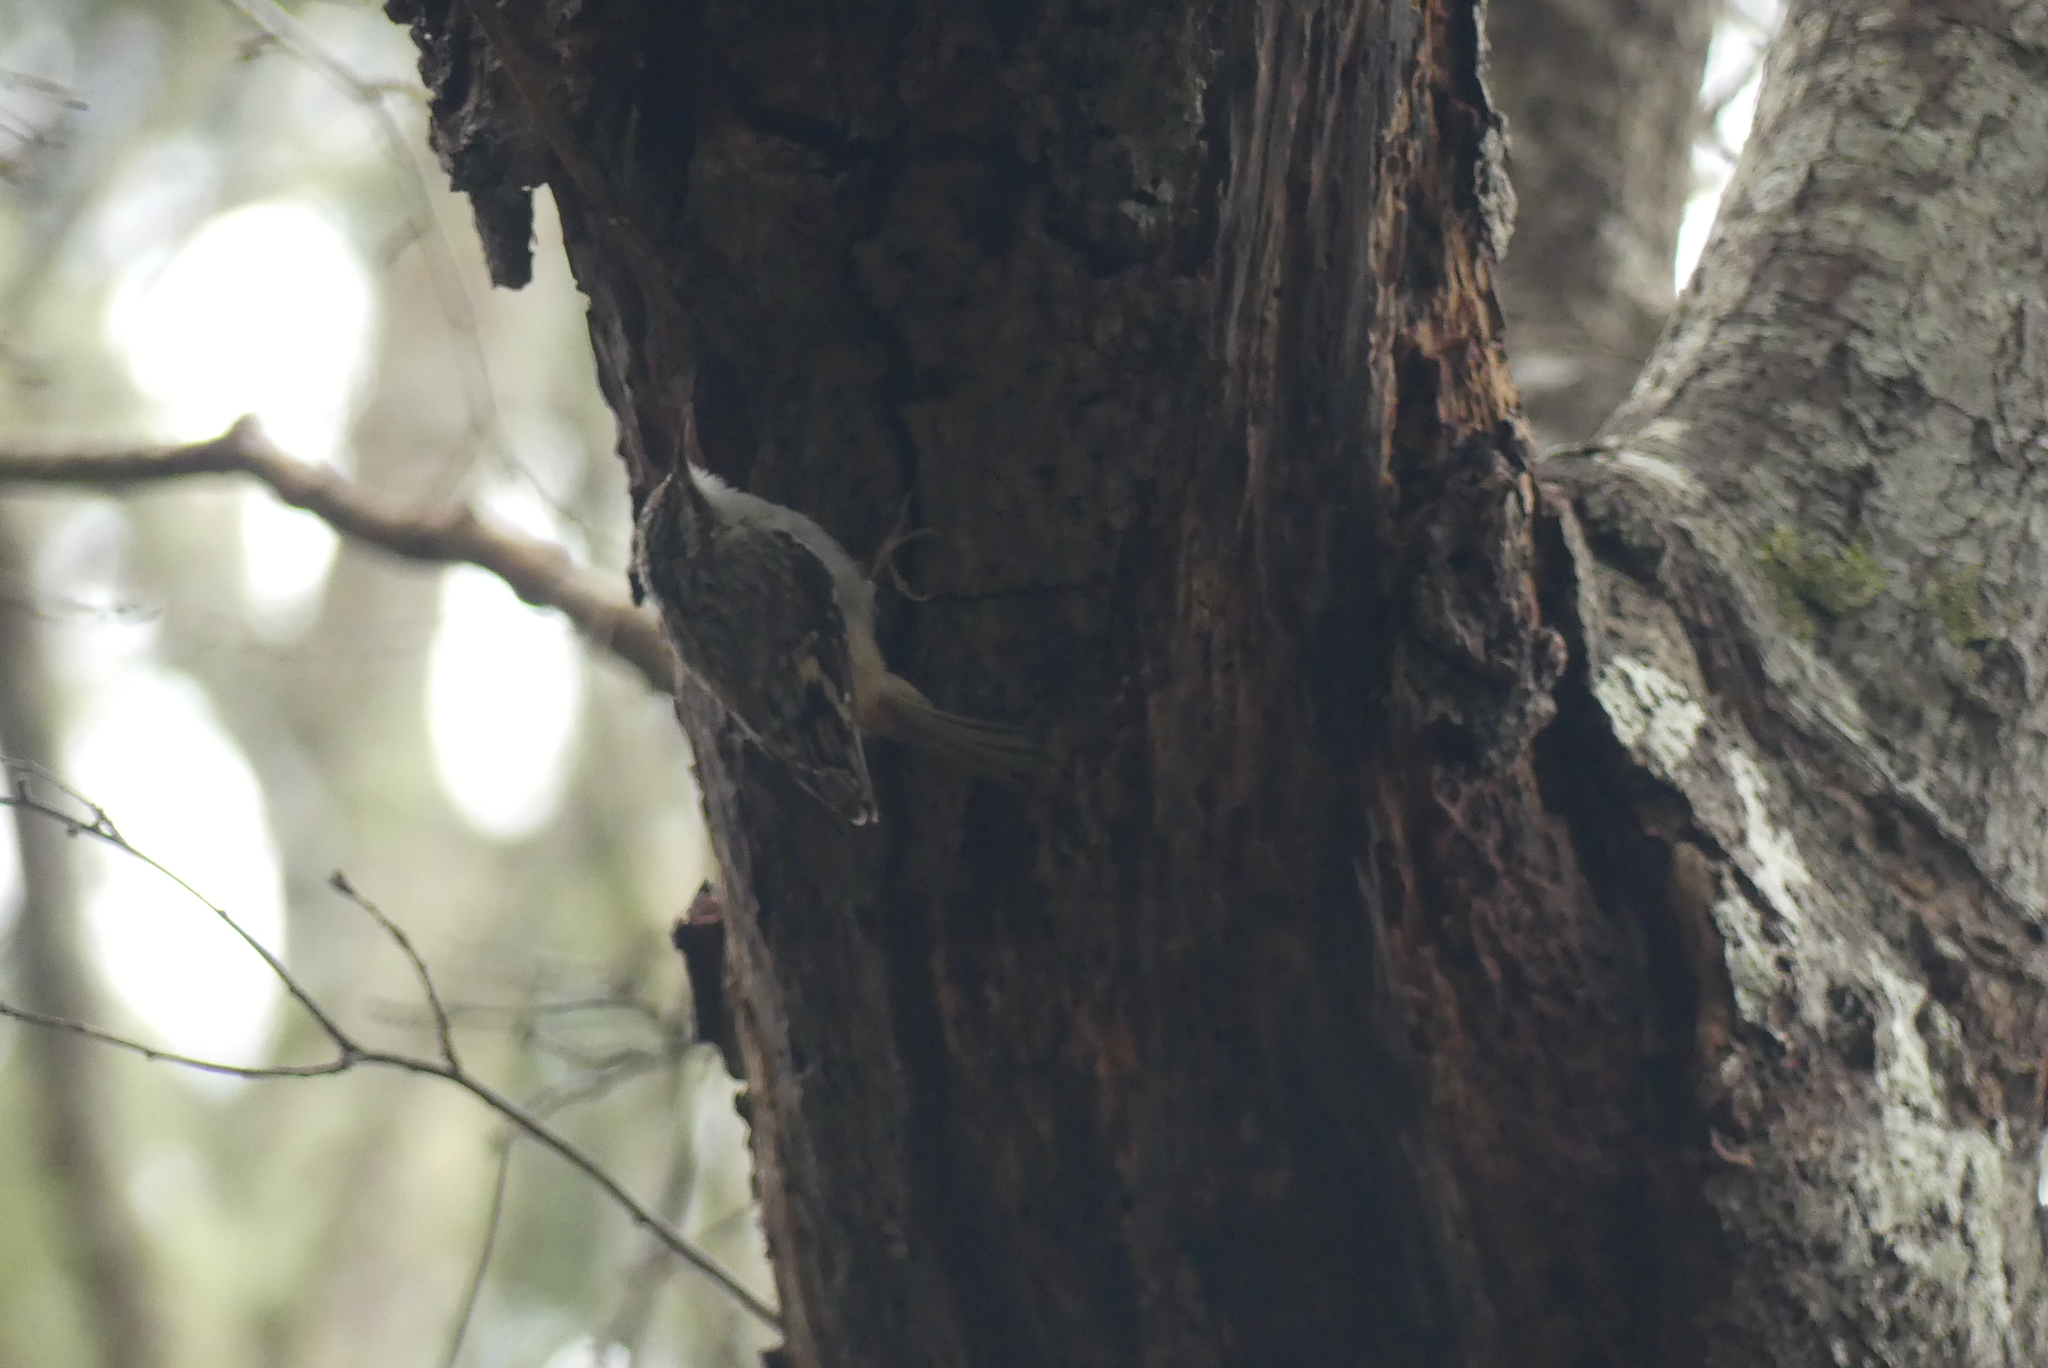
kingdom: Animalia
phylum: Chordata
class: Aves
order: Passeriformes
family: Certhiidae
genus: Certhia
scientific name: Certhia americana
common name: Brown creeper
